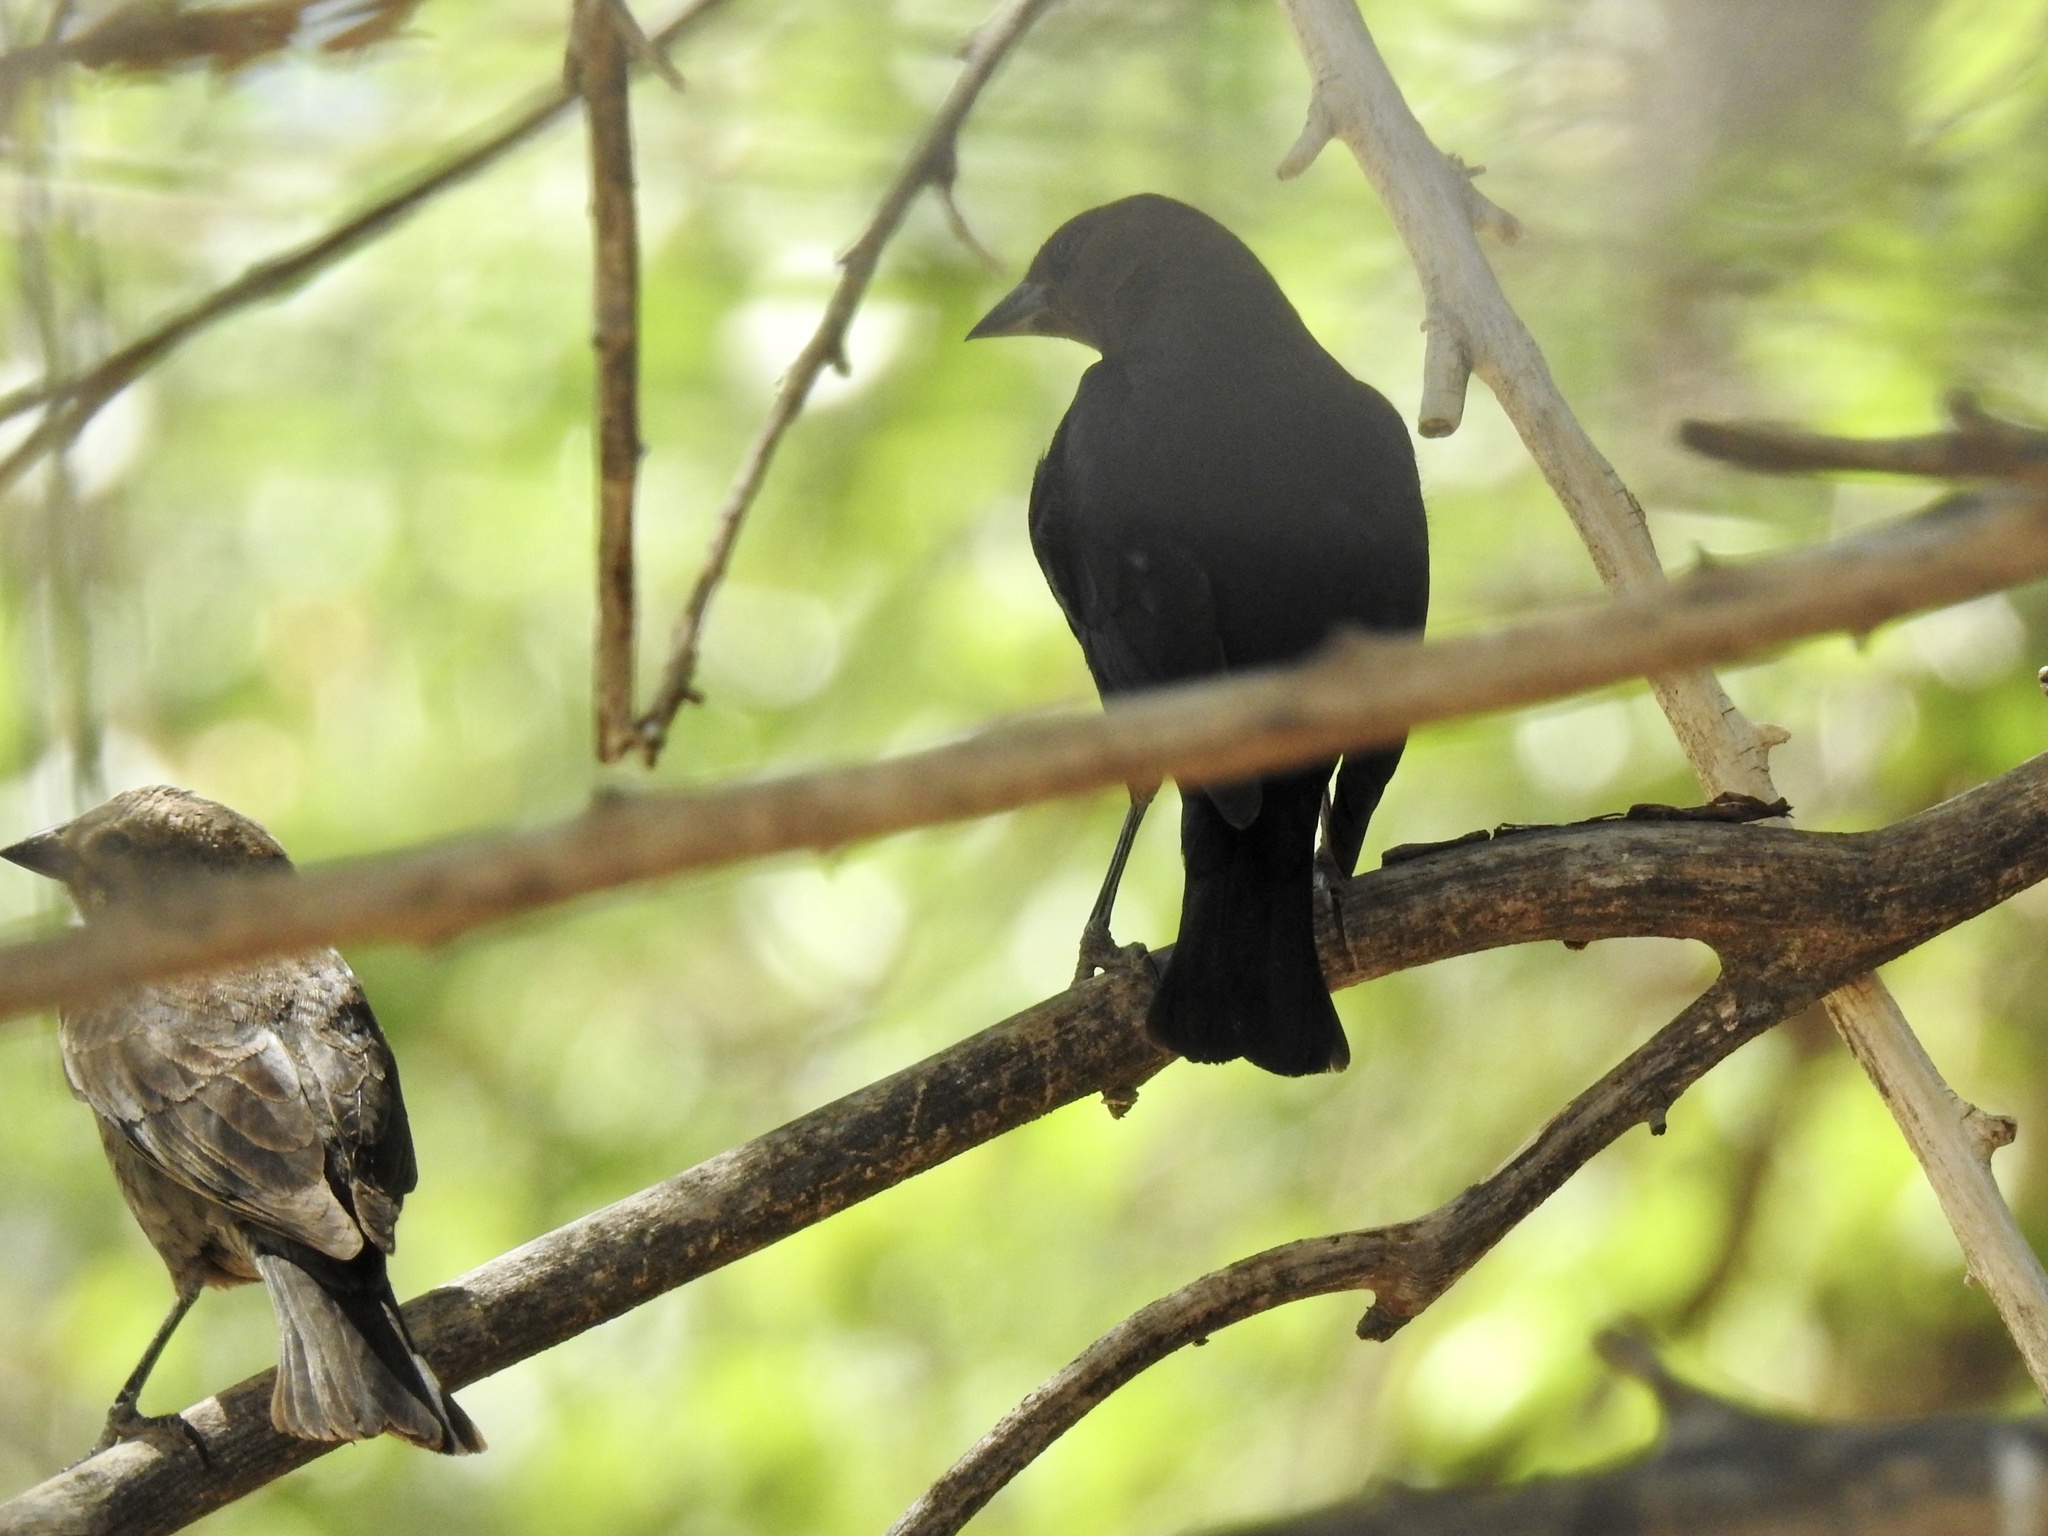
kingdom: Animalia
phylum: Chordata
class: Aves
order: Passeriformes
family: Icteridae
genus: Molothrus
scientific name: Molothrus ater
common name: Brown-headed cowbird
